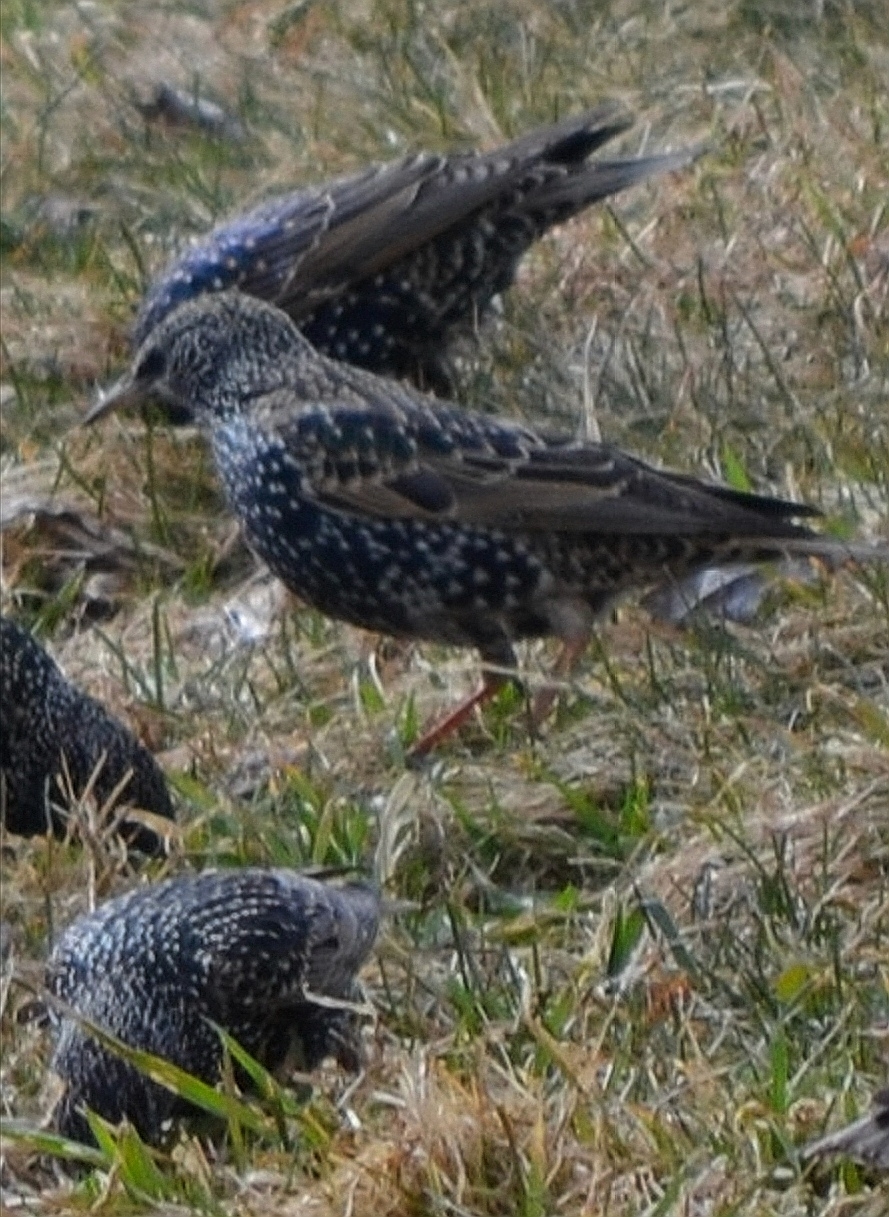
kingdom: Animalia
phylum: Chordata
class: Aves
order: Passeriformes
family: Sturnidae
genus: Sturnus
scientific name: Sturnus vulgaris
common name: Common starling
